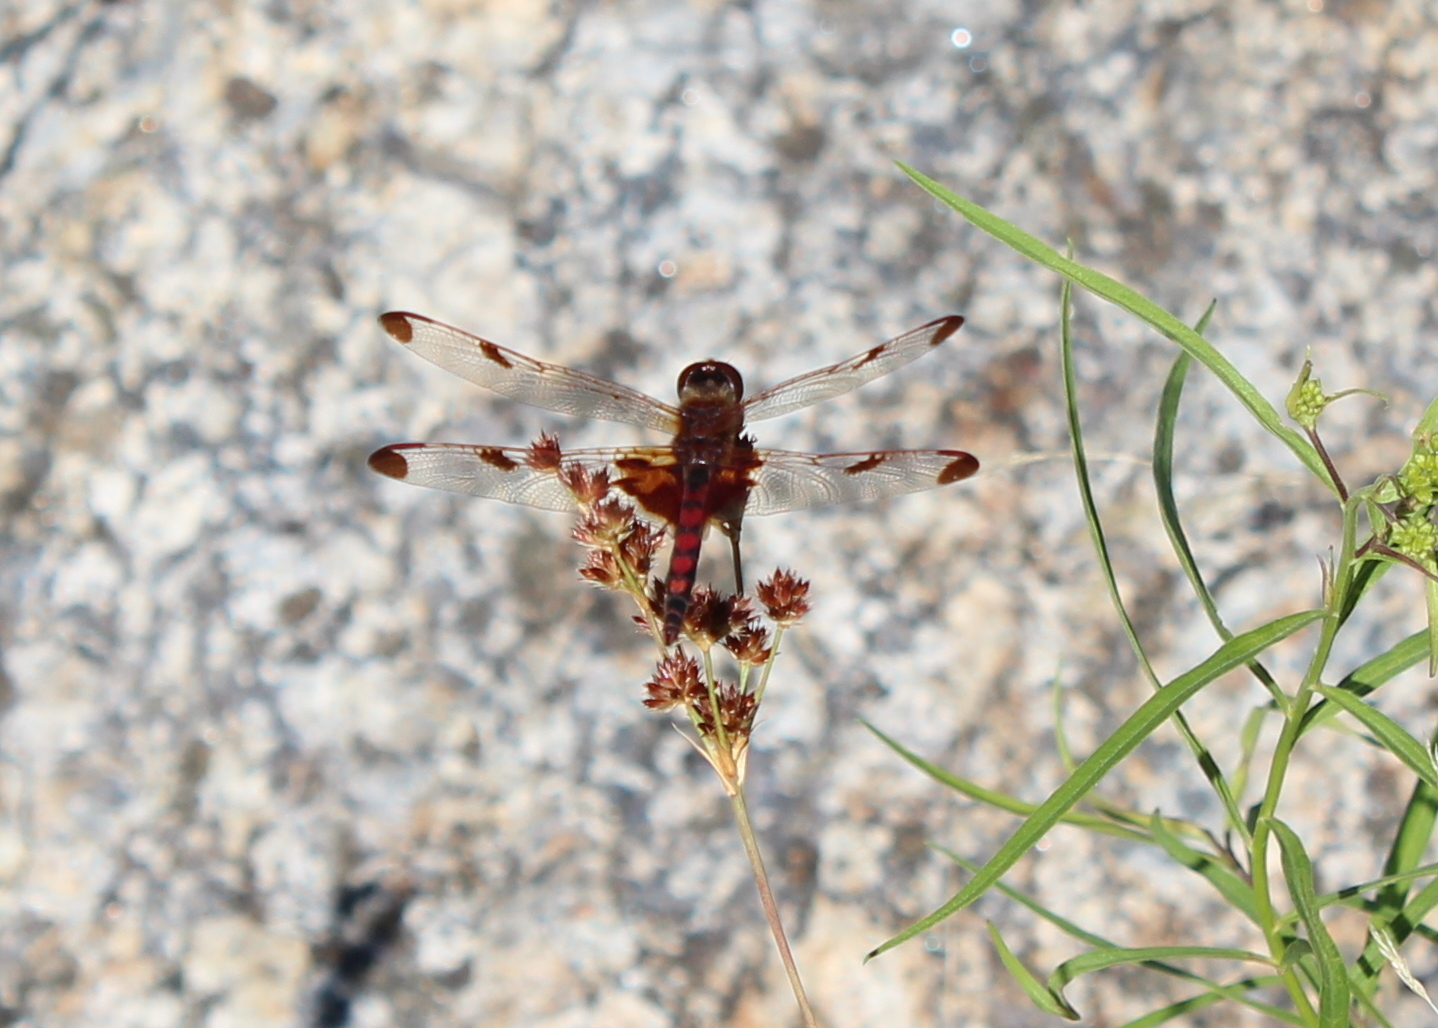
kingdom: Animalia
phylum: Arthropoda
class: Insecta
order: Odonata
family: Libellulidae
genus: Celithemis
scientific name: Celithemis elisa
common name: Calico pennant
